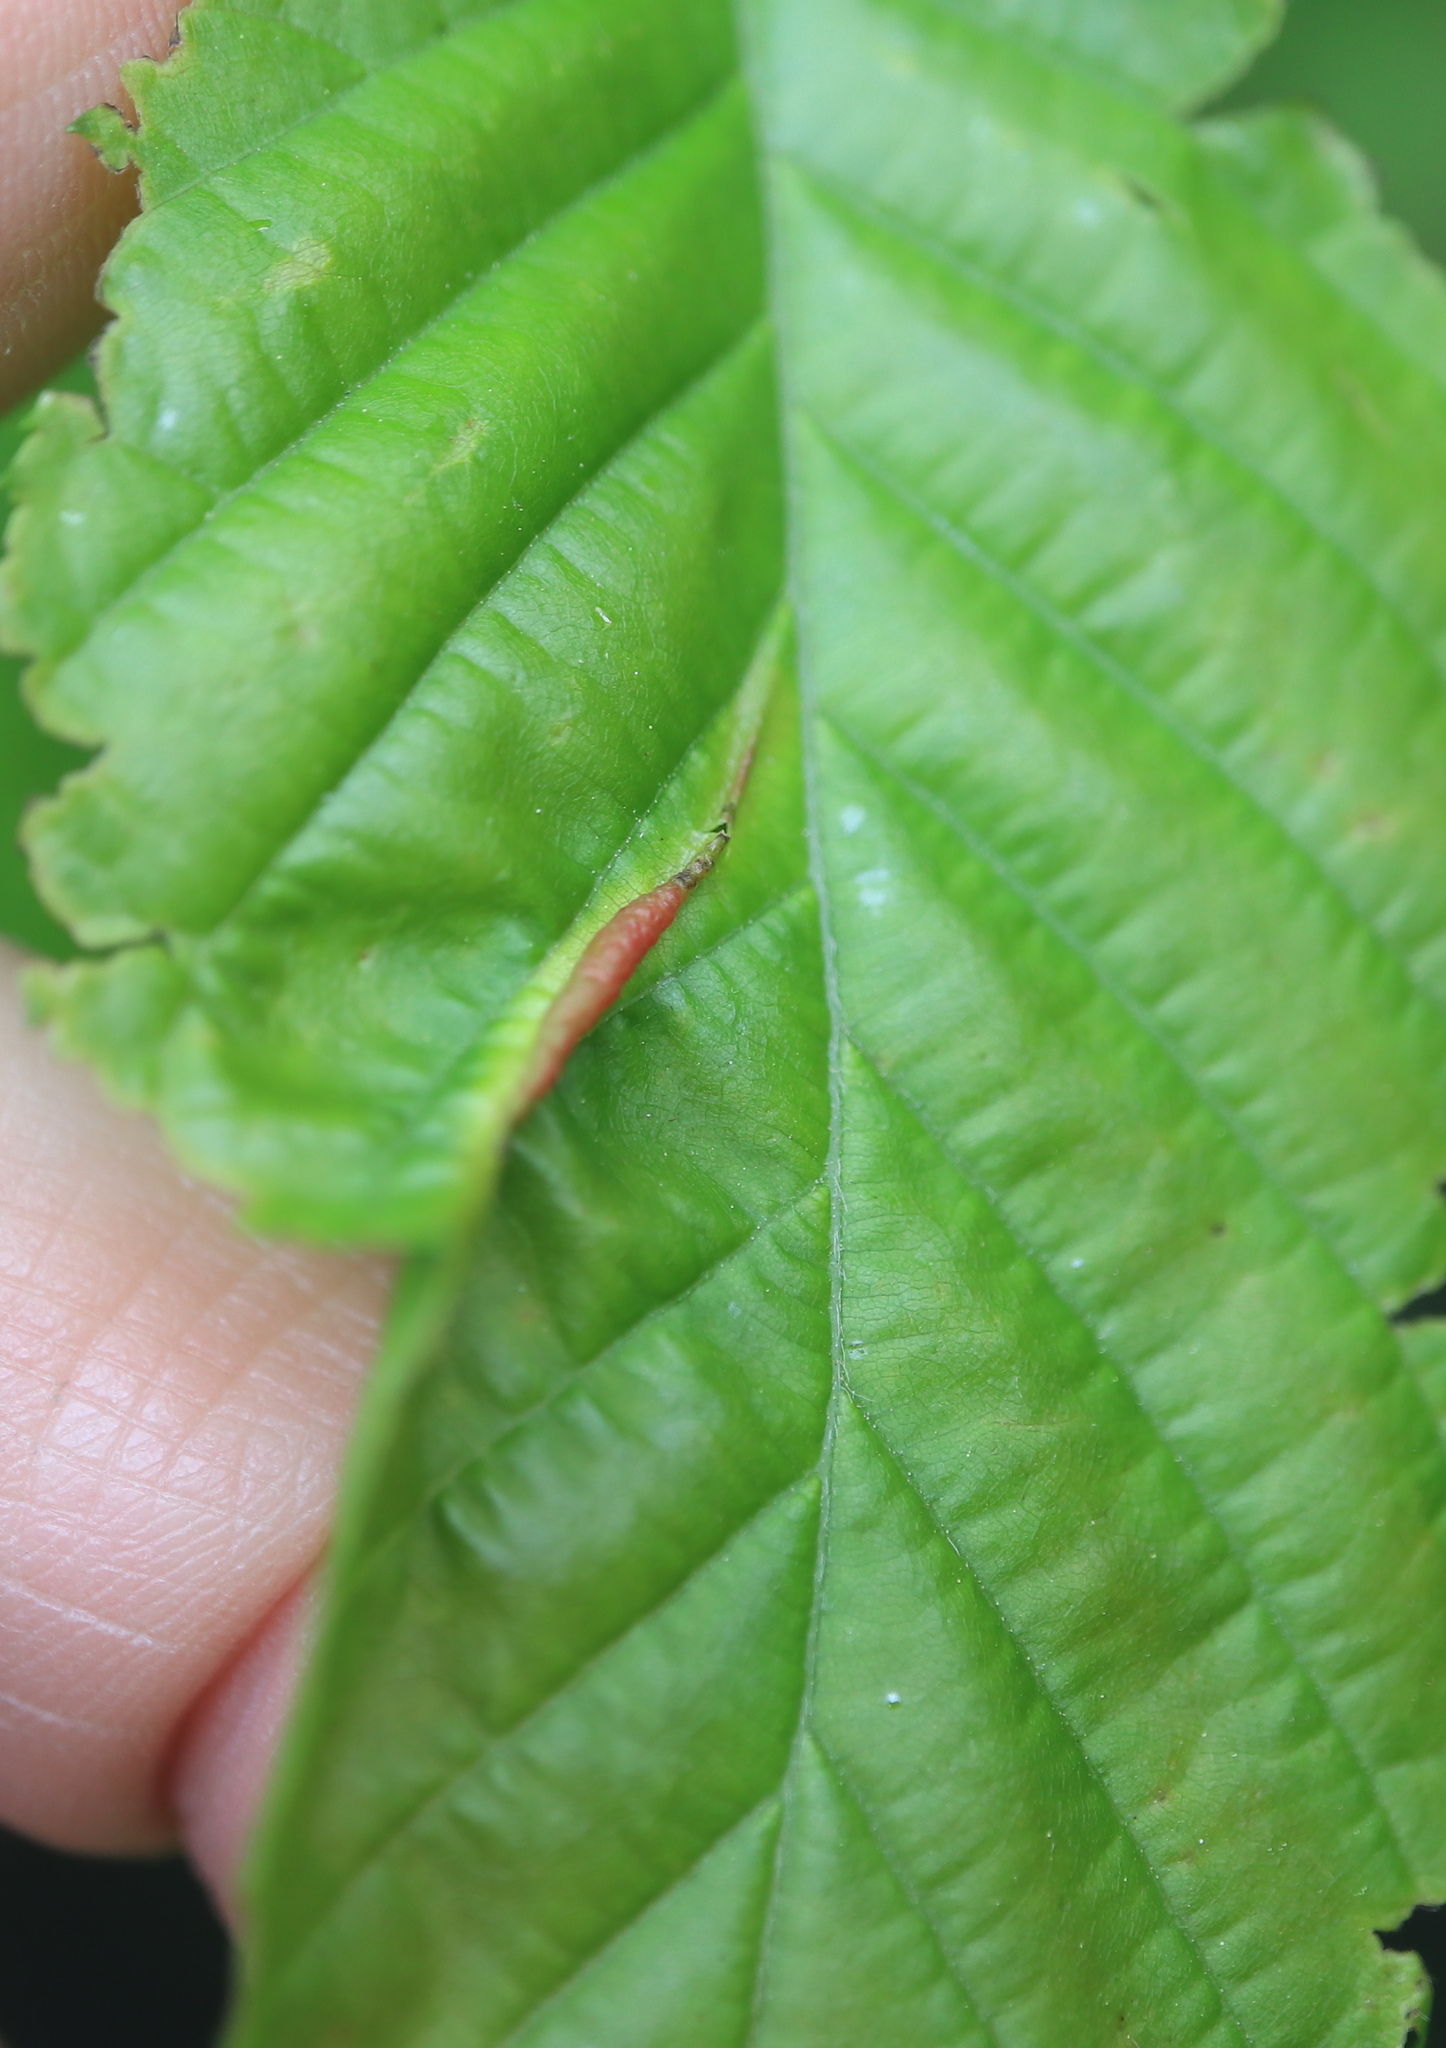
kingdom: Animalia
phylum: Arthropoda
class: Insecta
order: Diptera
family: Cecidomyiidae
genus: Dasineura
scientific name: Dasineura pudibunda
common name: Hornbeam leaf gall midge
